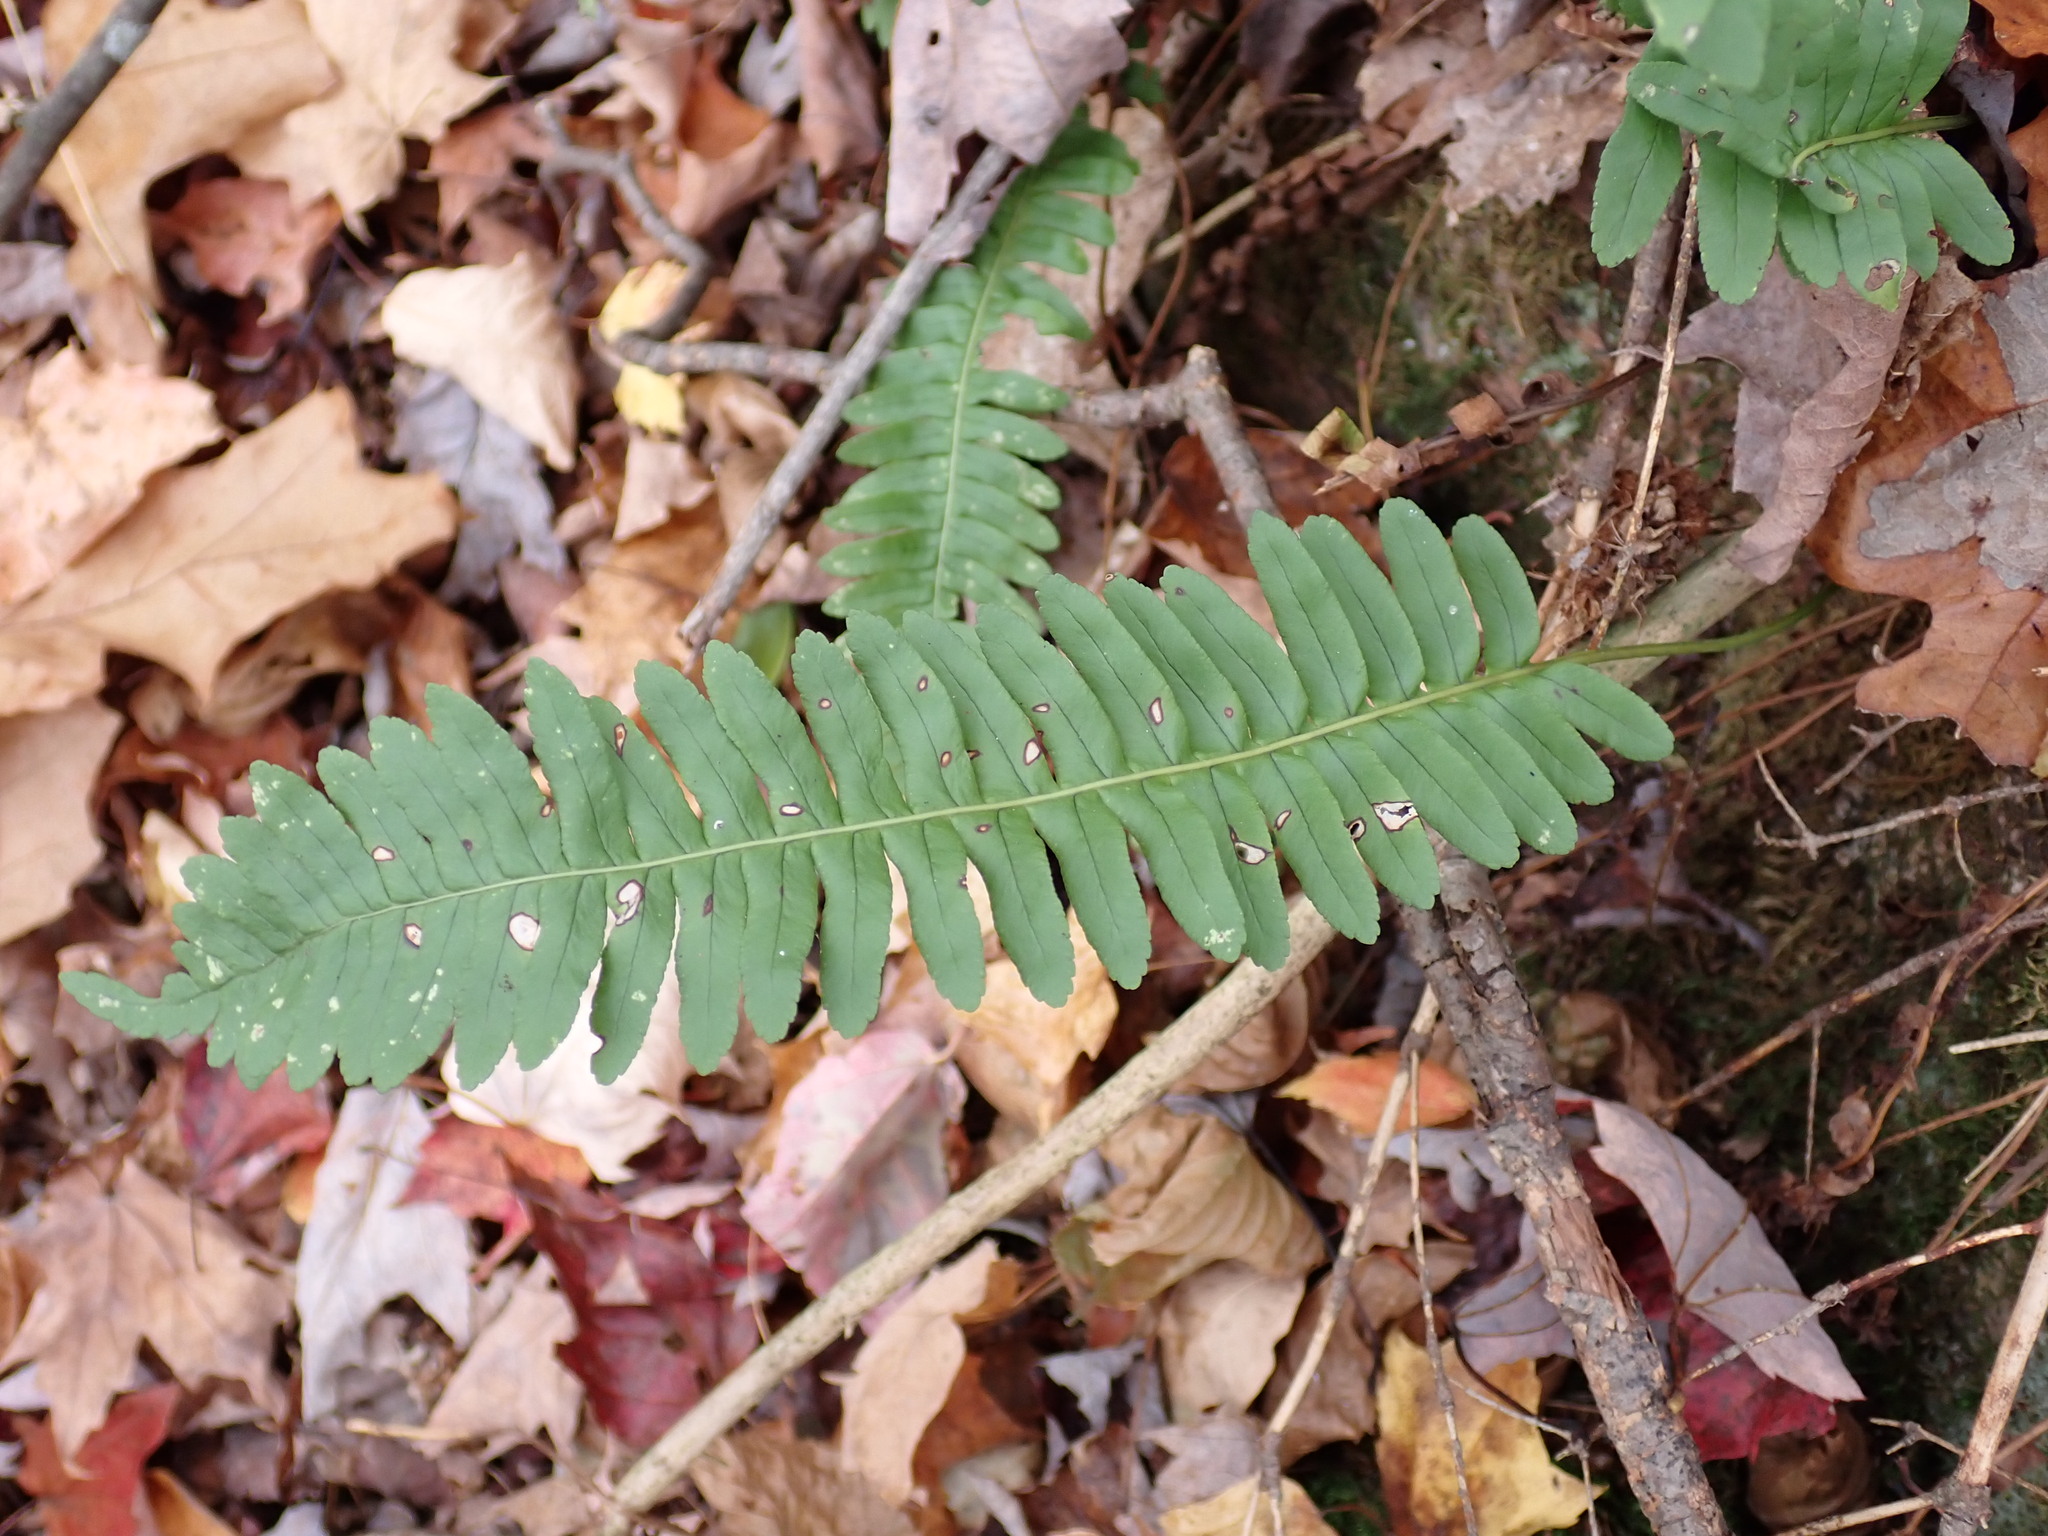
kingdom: Plantae
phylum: Tracheophyta
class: Polypodiopsida
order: Polypodiales
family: Polypodiaceae
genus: Polypodium
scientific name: Polypodium virginianum
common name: American wall fern
